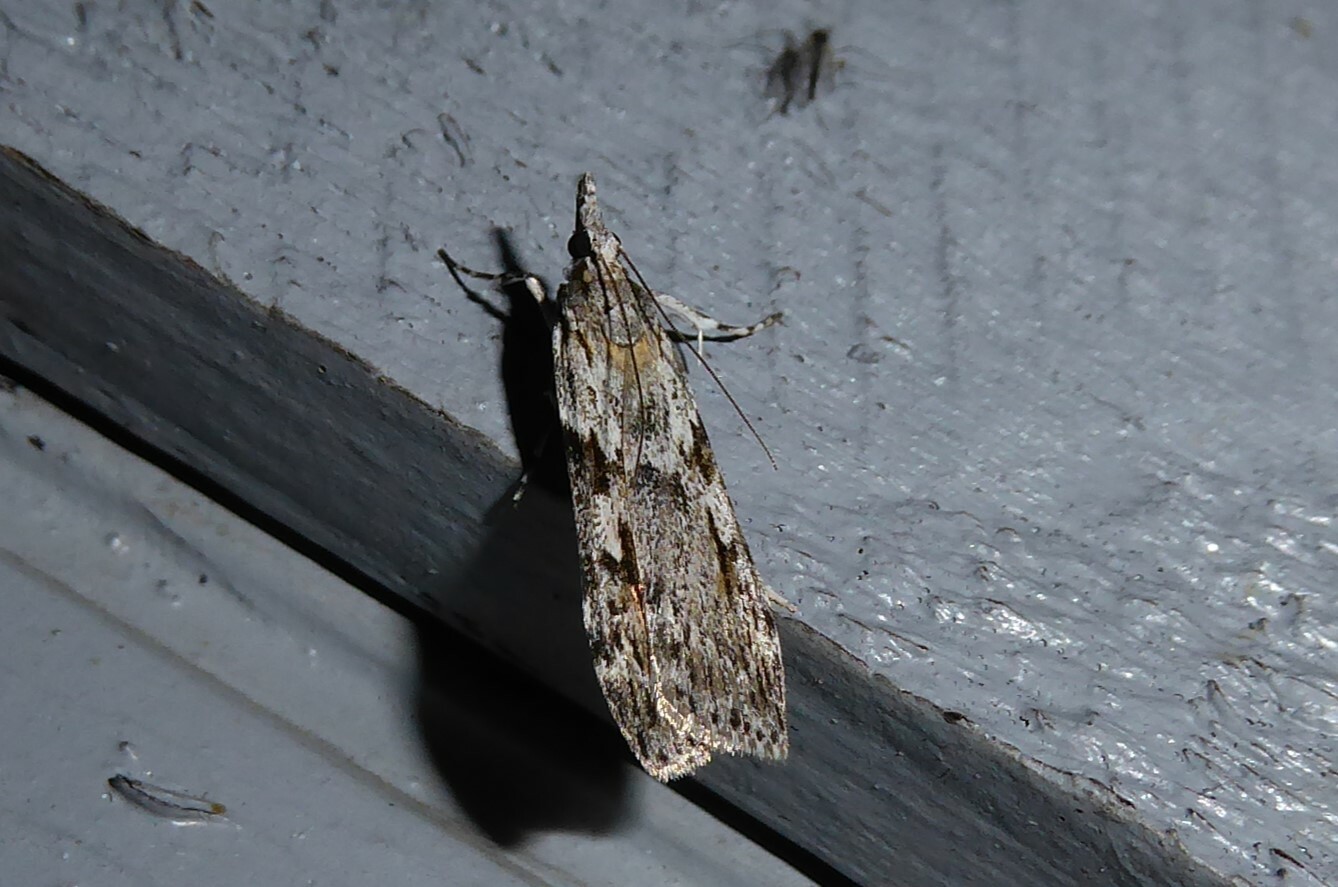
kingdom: Animalia
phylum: Arthropoda
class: Insecta
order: Lepidoptera
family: Crambidae
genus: Scoparia
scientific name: Scoparia halopis
